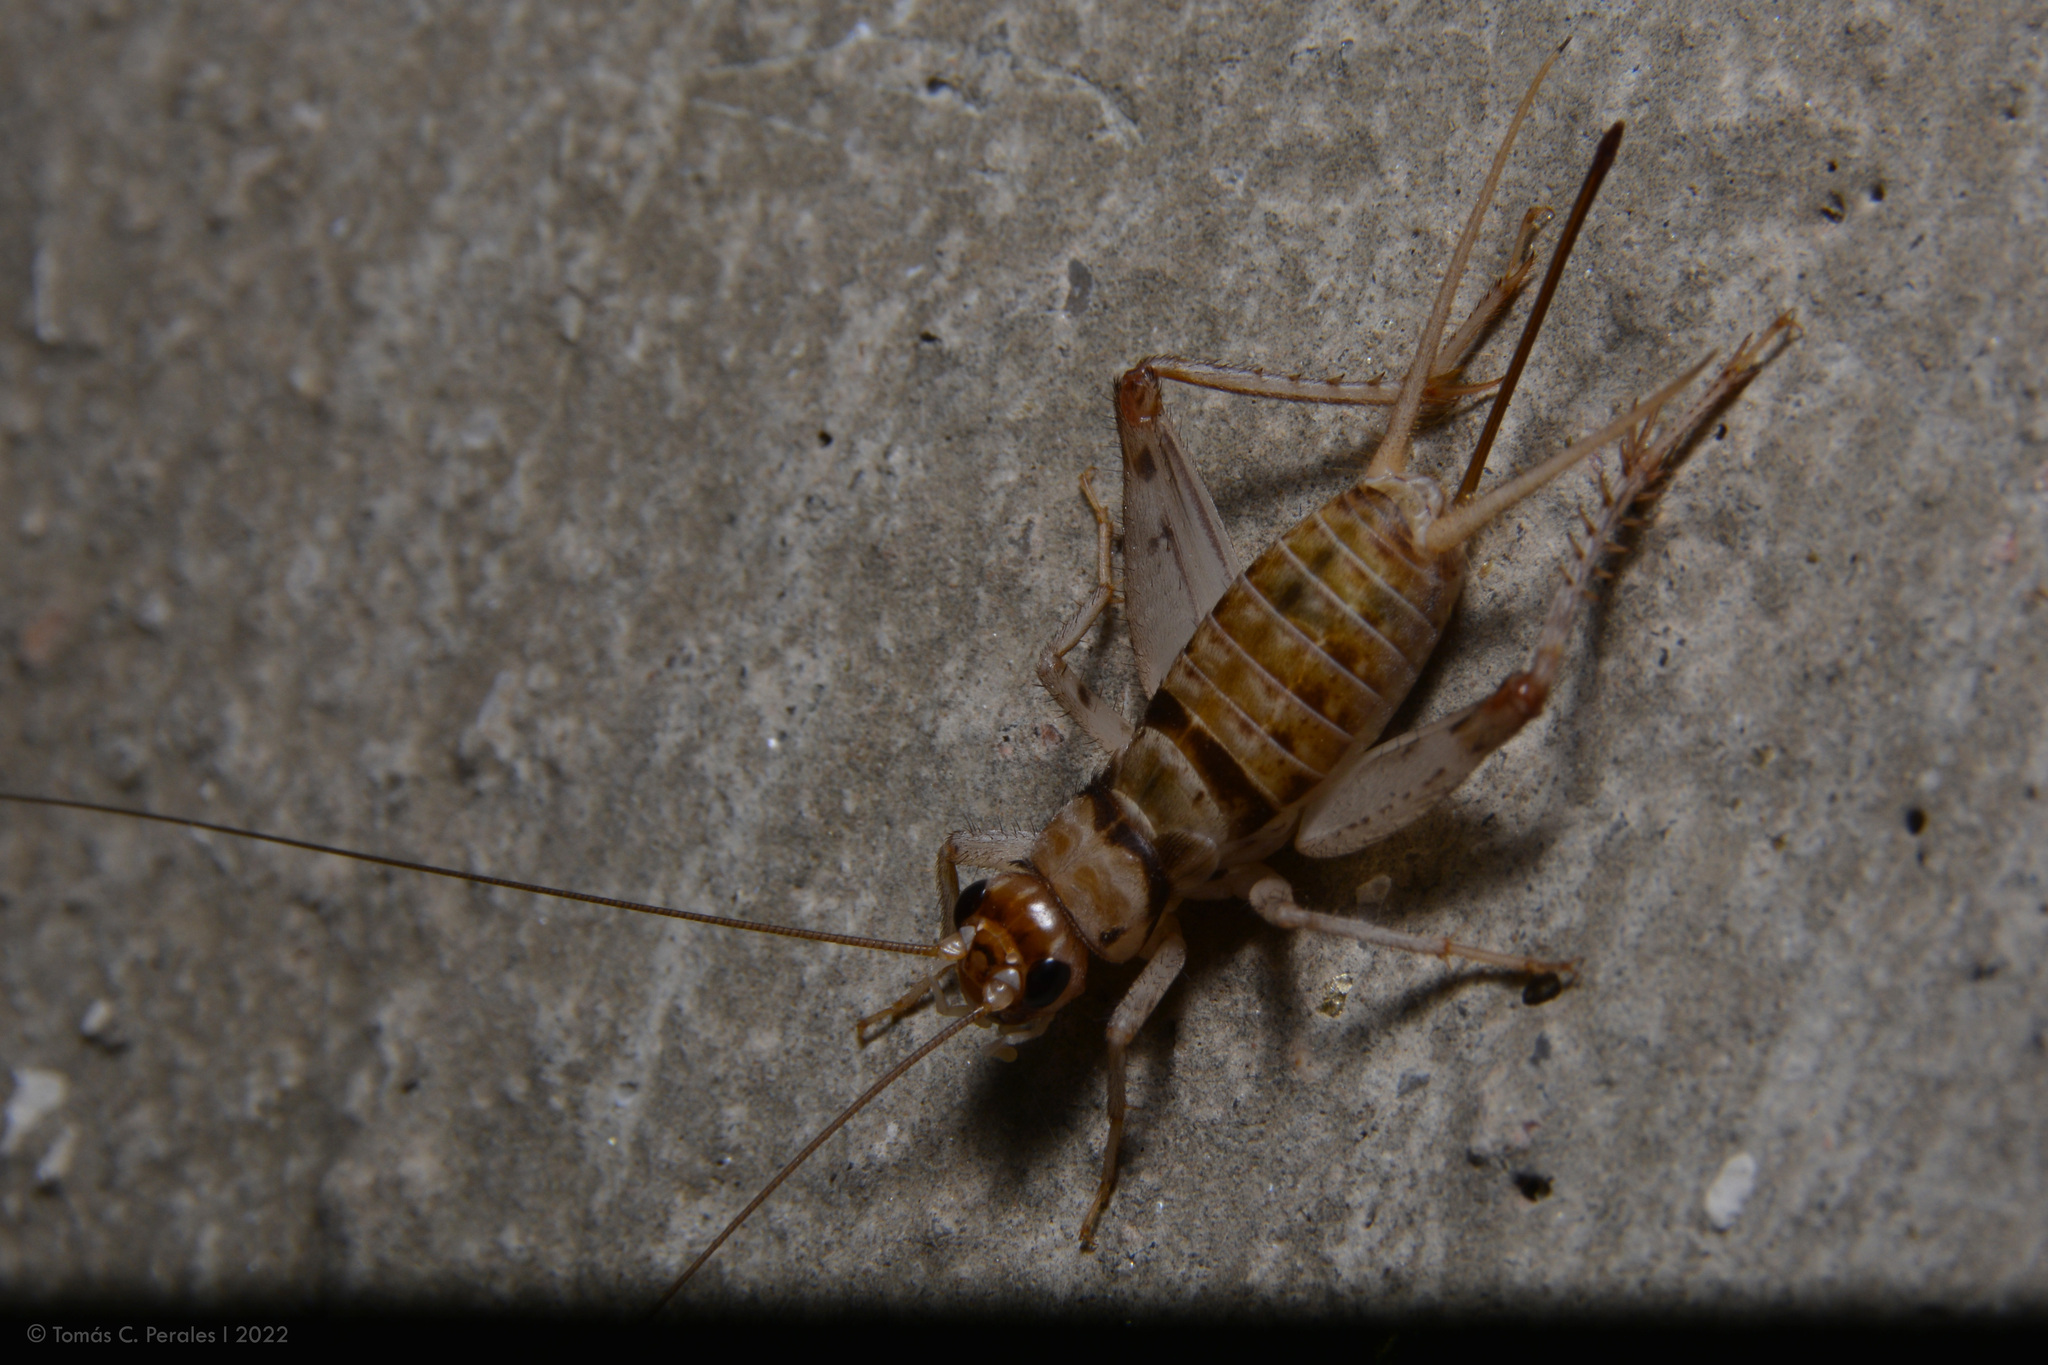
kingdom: Animalia
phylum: Arthropoda
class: Insecta
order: Orthoptera
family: Gryllidae
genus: Gryllodes
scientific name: Gryllodes sigillatus
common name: Tropical house cricket
